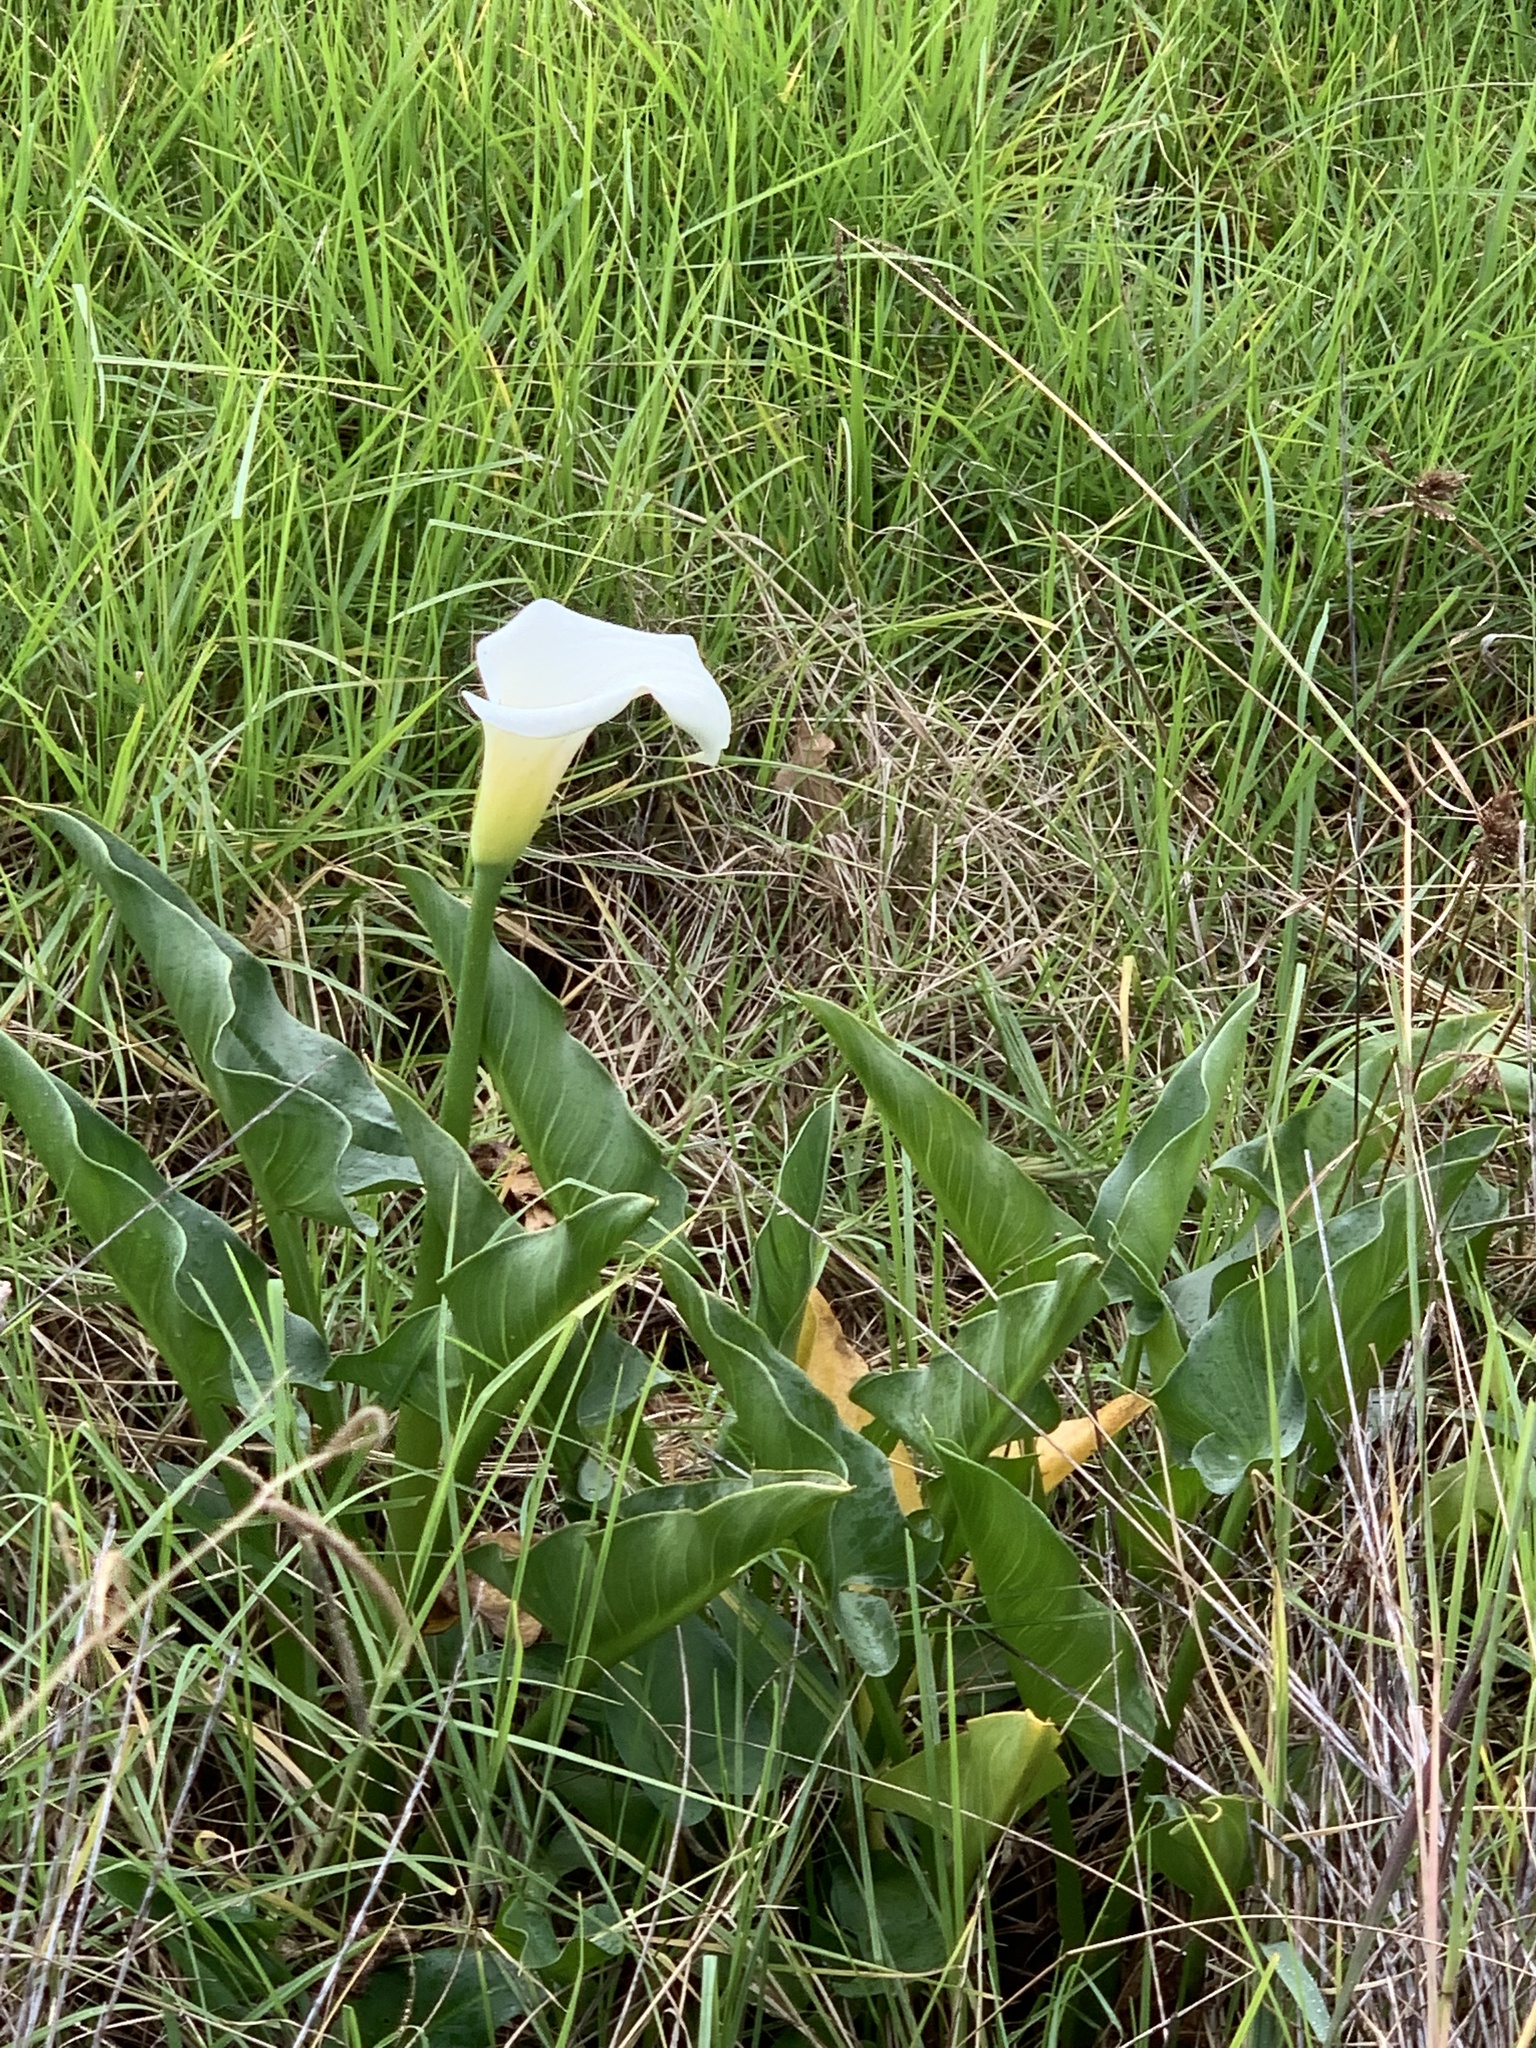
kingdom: Plantae
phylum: Tracheophyta
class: Liliopsida
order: Alismatales
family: Araceae
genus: Zantedeschia
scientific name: Zantedeschia aethiopica
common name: Altar-lily
